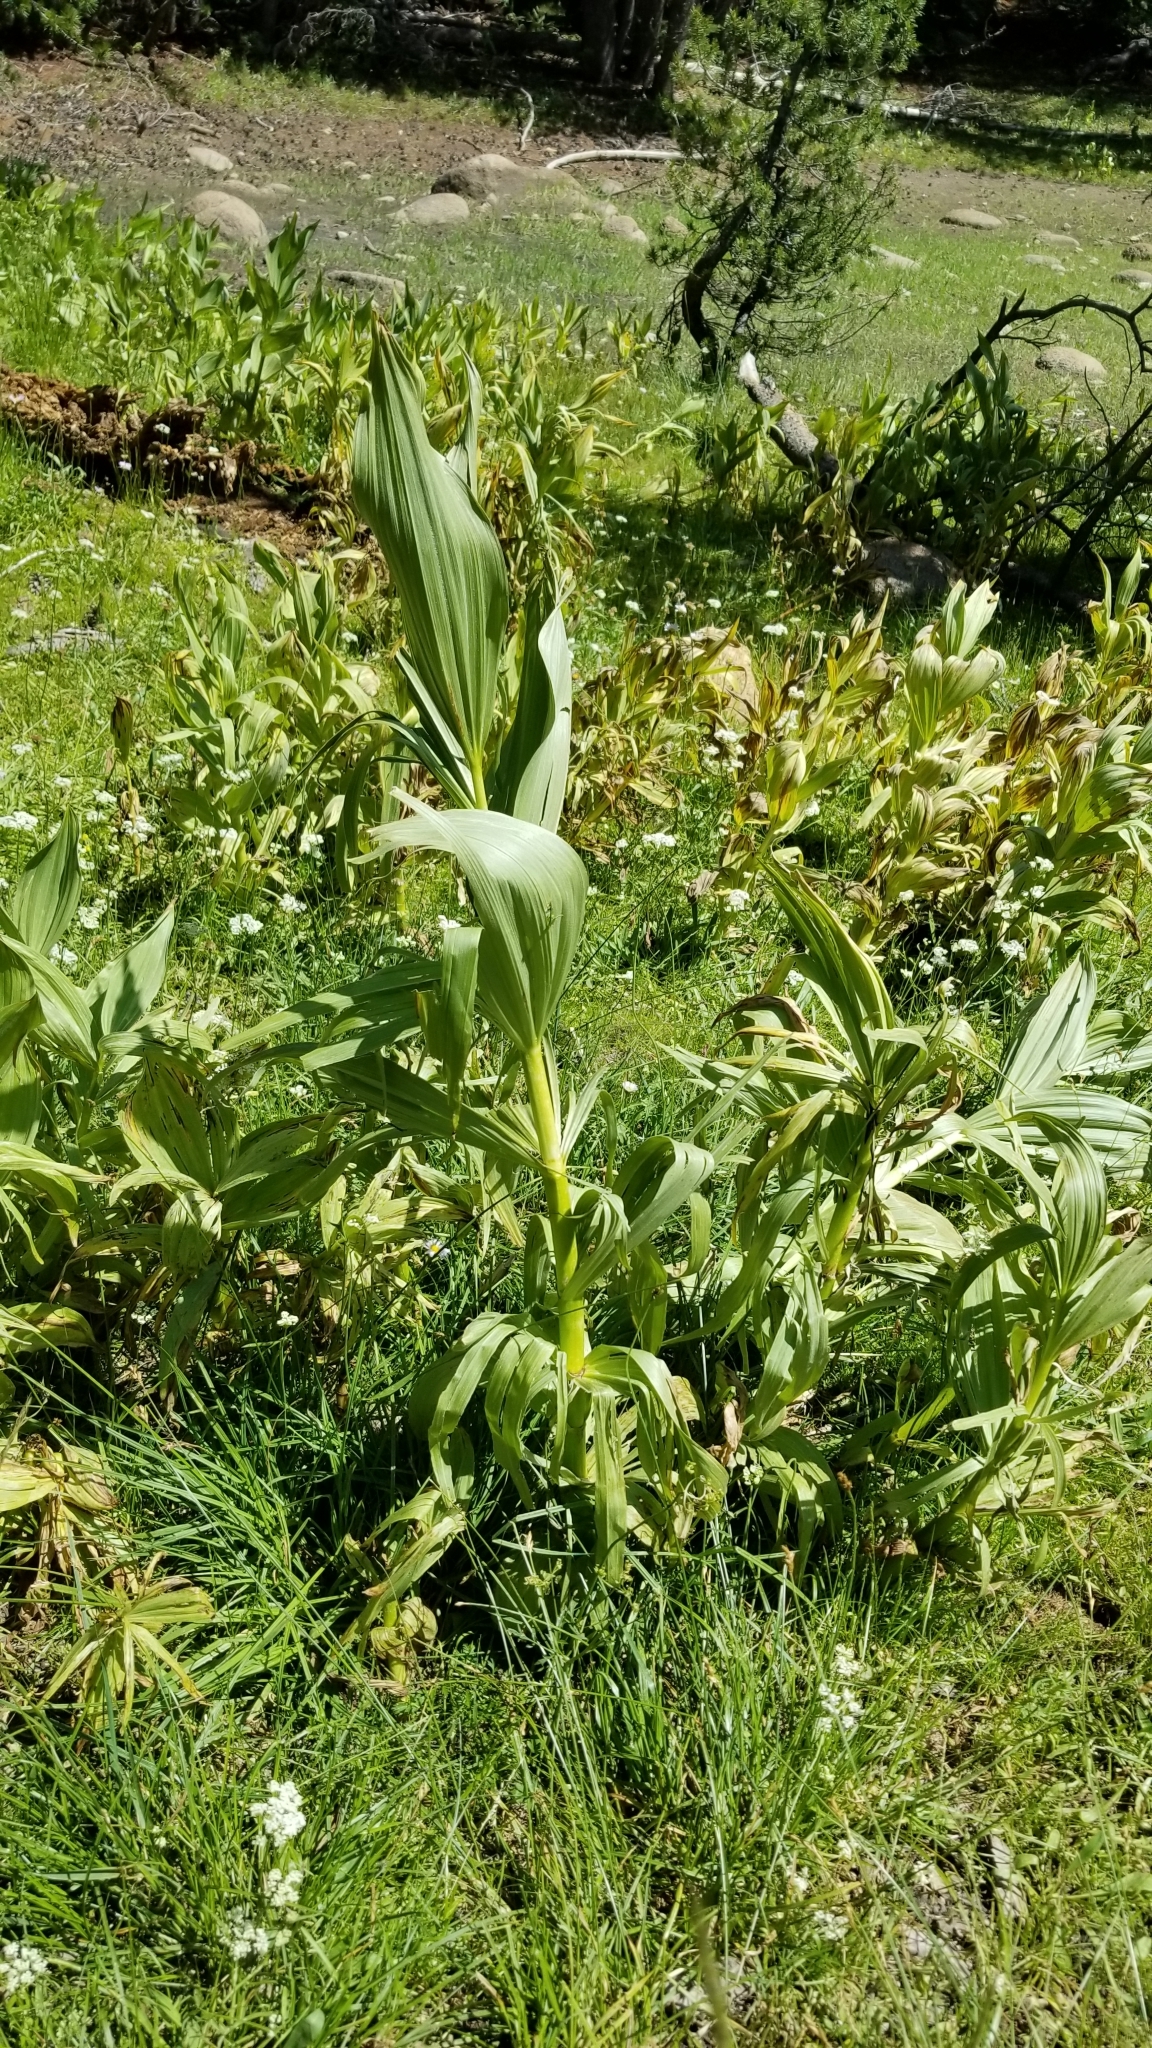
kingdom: Plantae
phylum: Tracheophyta
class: Liliopsida
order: Liliales
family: Melanthiaceae
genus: Veratrum
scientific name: Veratrum californicum
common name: California veratrum
